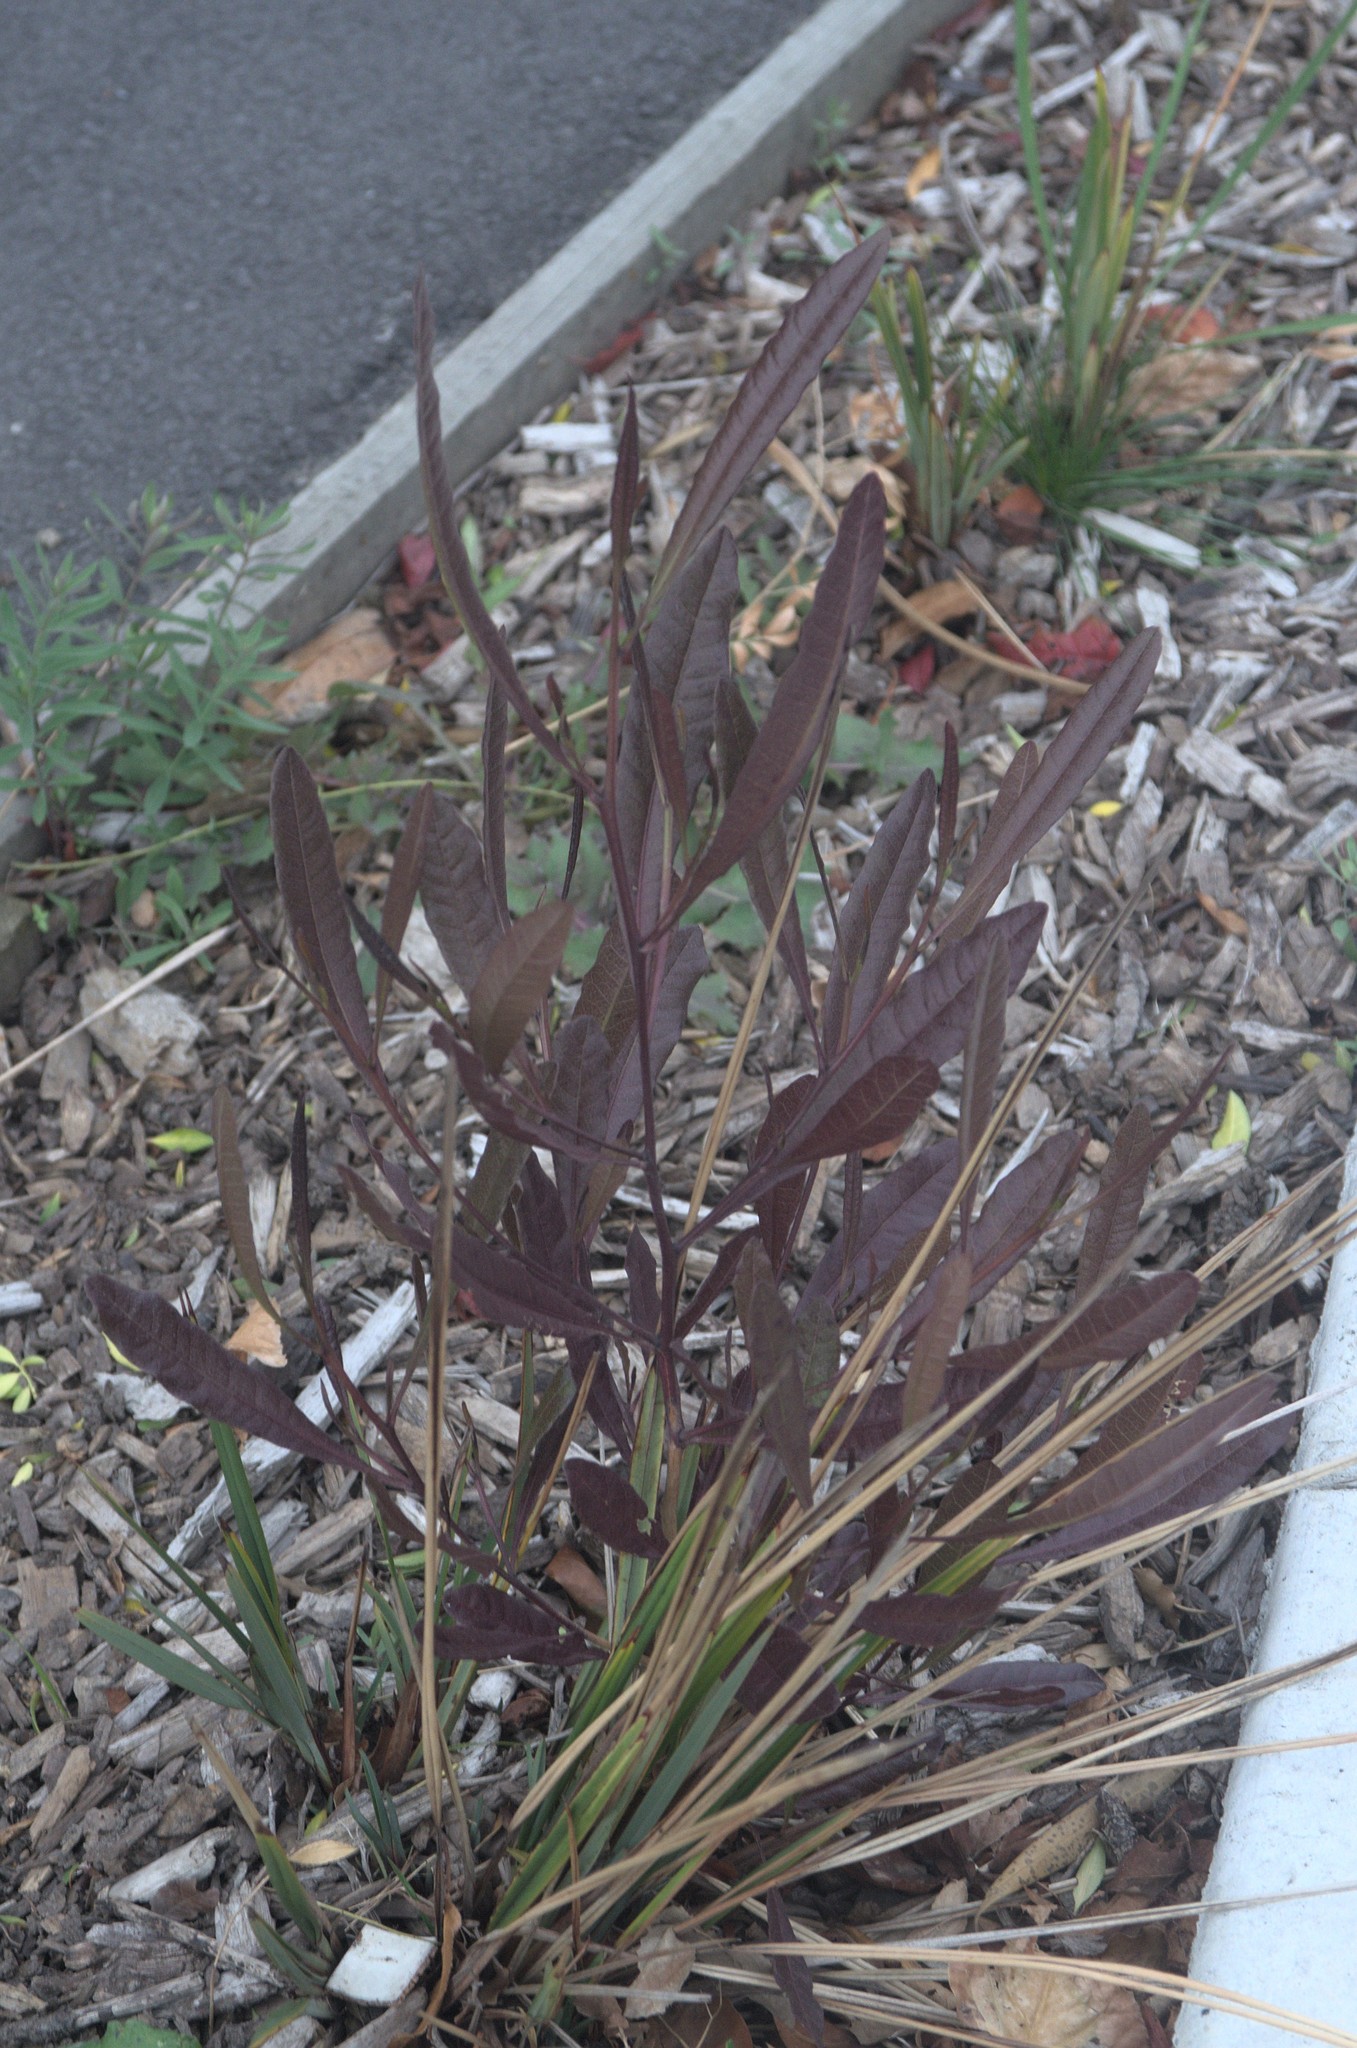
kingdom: Plantae
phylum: Tracheophyta
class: Magnoliopsida
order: Sapindales
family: Sapindaceae
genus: Dodonaea
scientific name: Dodonaea viscosa
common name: Hopbush
